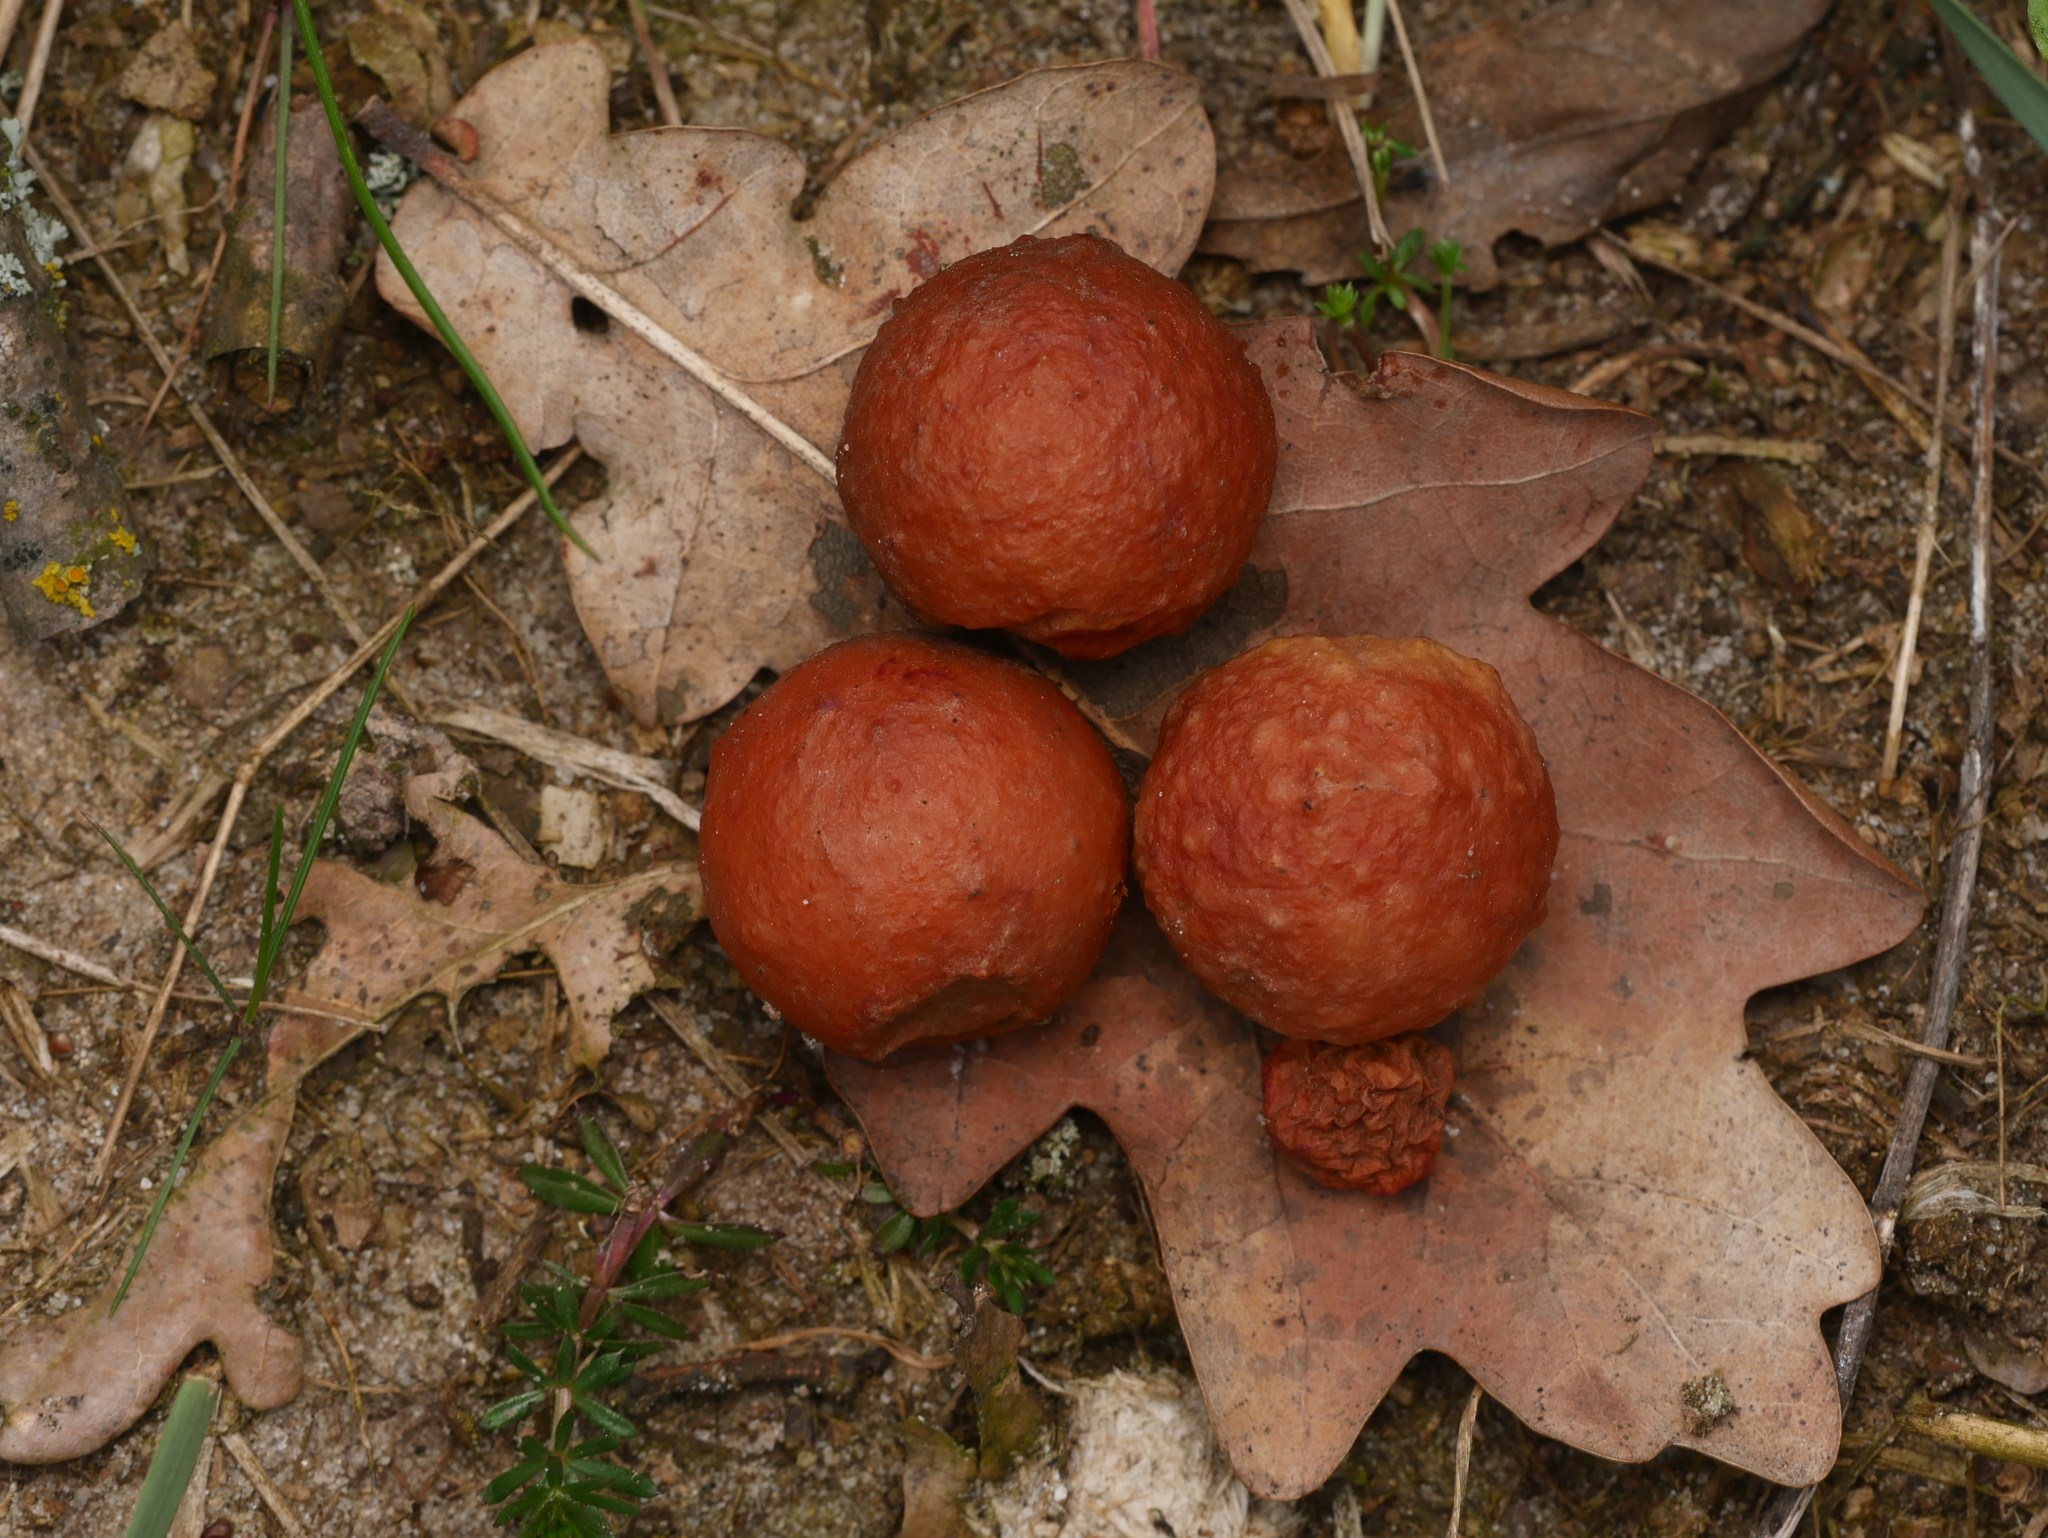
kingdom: Animalia
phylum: Arthropoda
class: Insecta
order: Hymenoptera
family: Cynipidae
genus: Cynips
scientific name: Cynips quercusfolii
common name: Cherry gall
